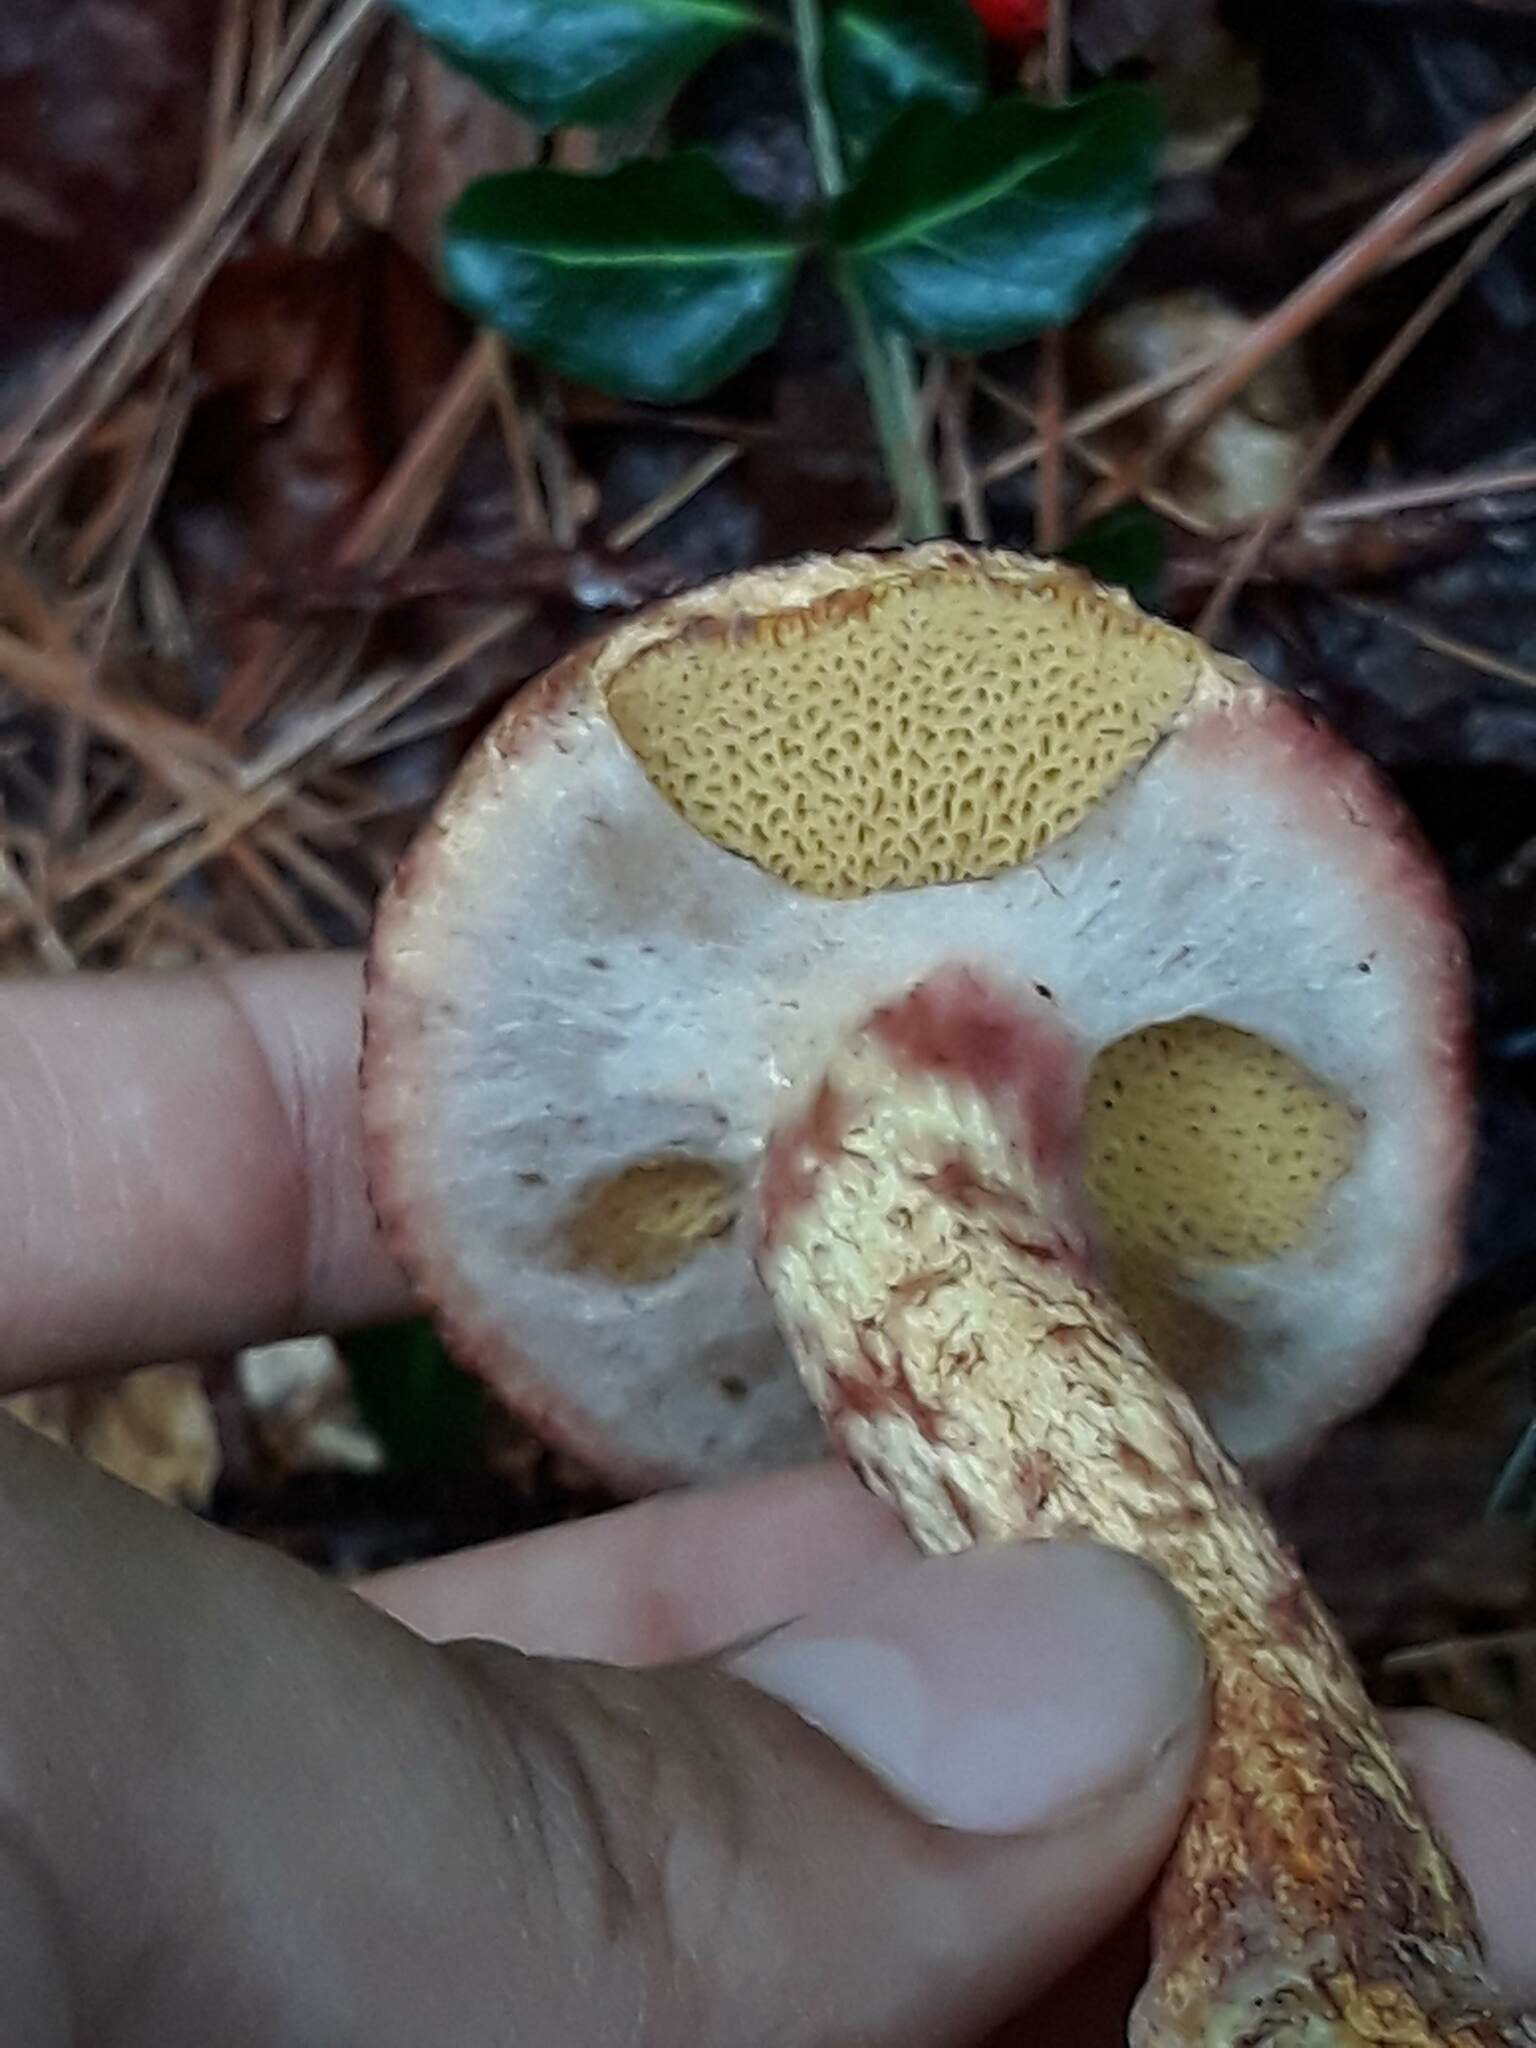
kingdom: Fungi
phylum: Basidiomycota
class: Agaricomycetes
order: Boletales
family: Suillaceae
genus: Suillus
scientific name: Suillus spraguei
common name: Painted suillus
